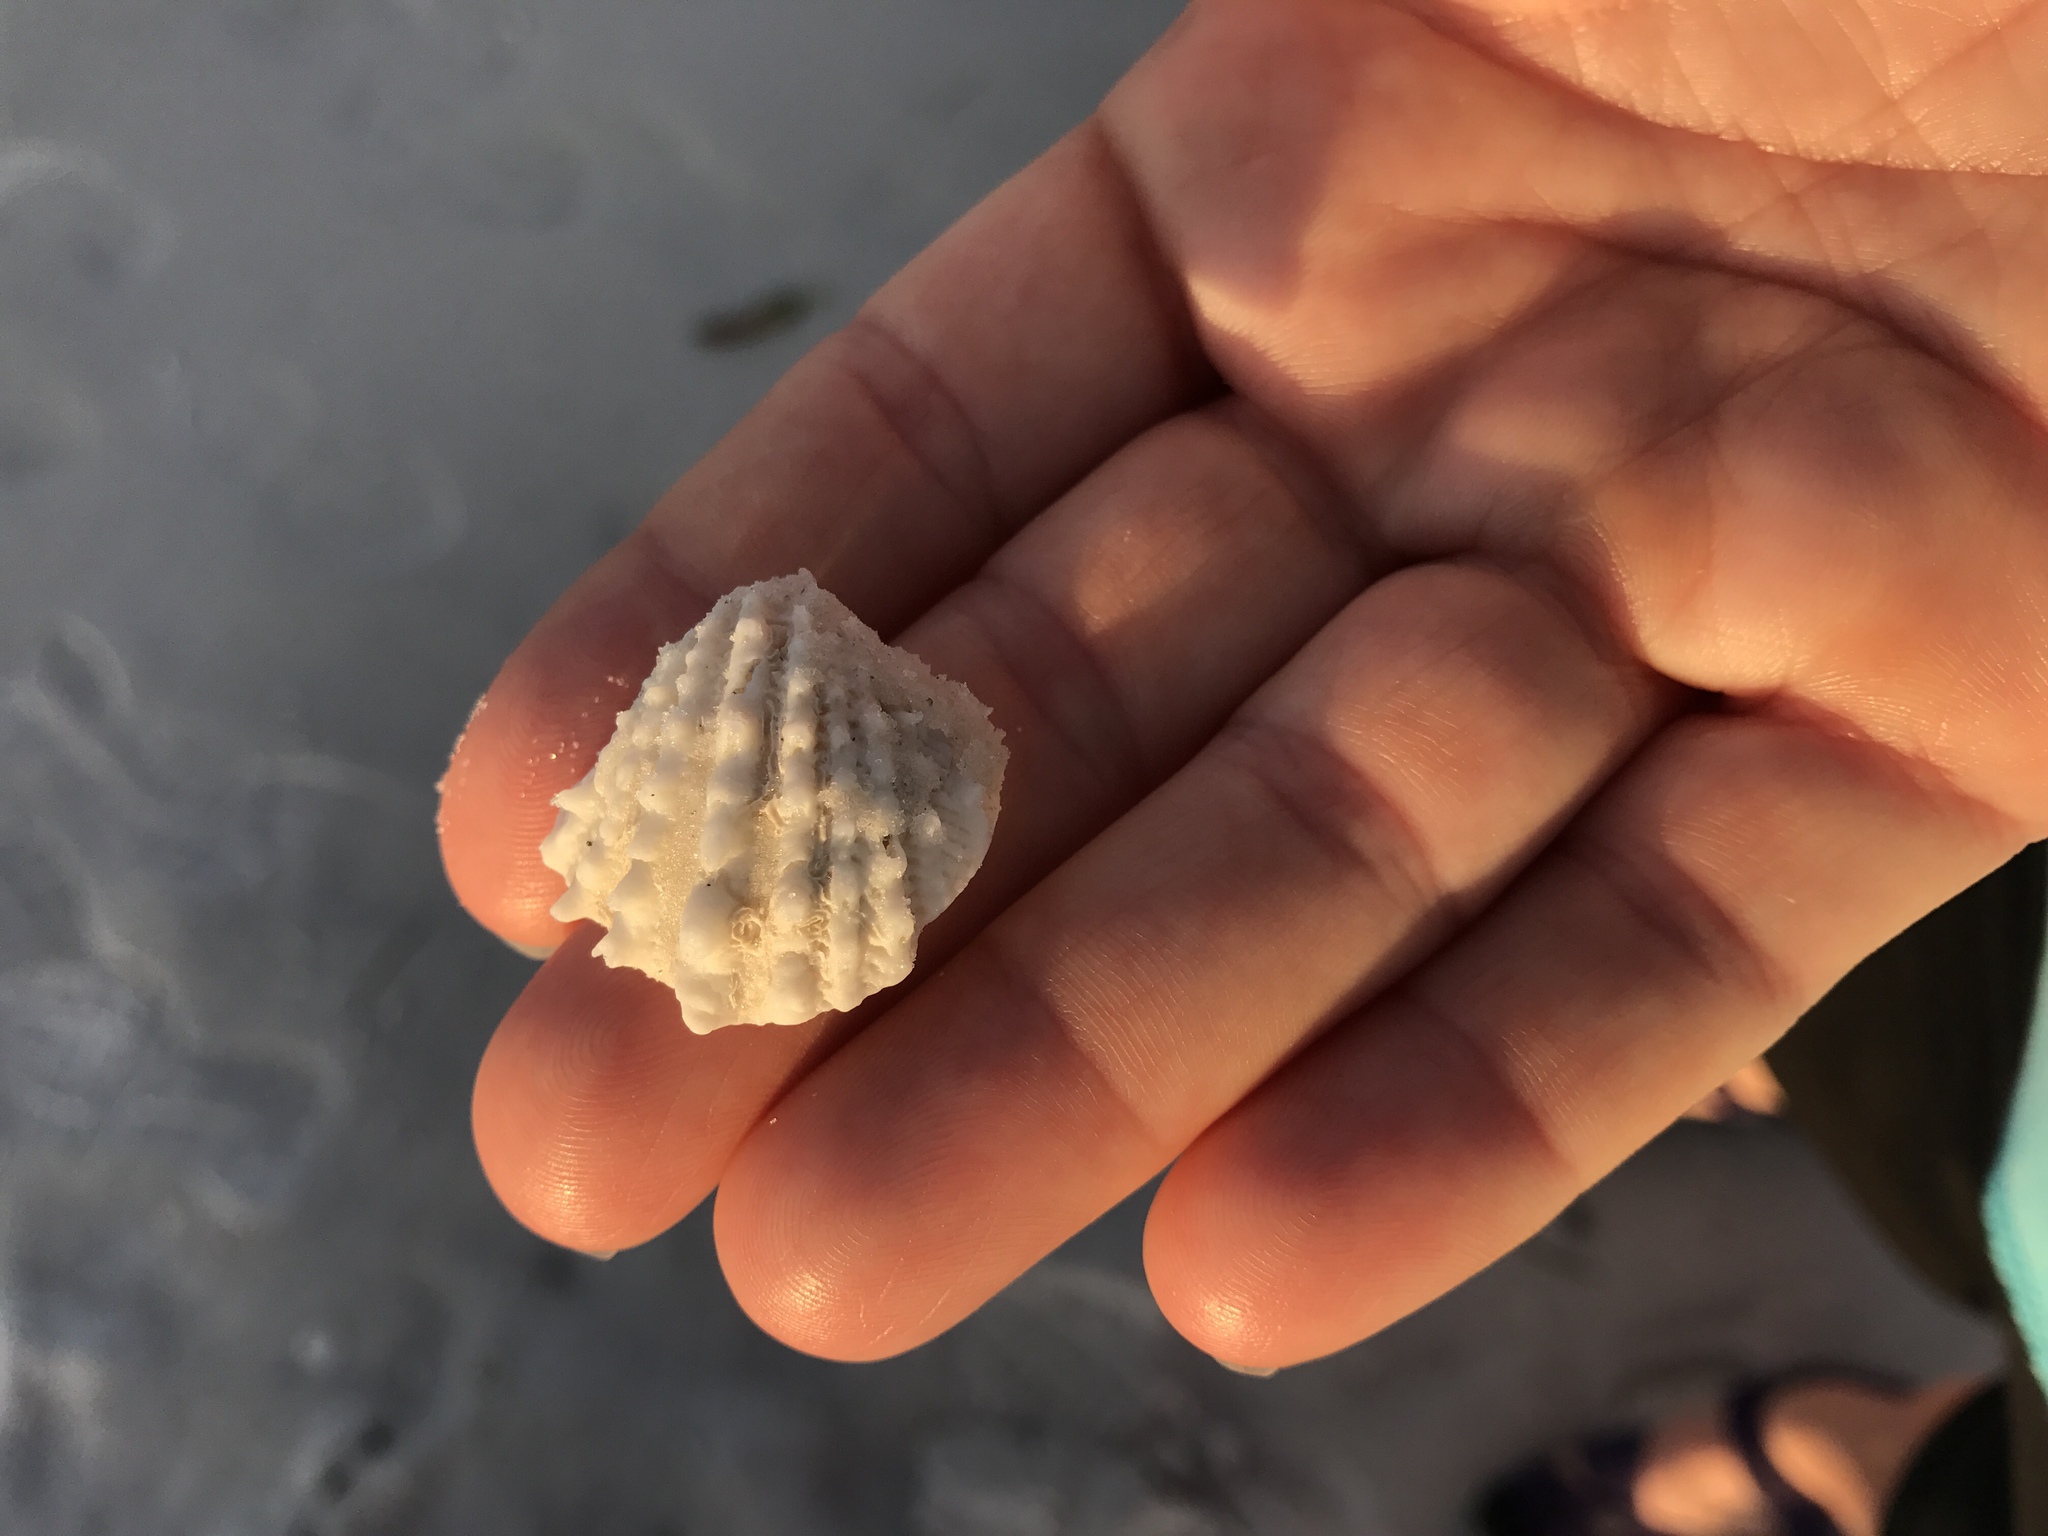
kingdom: Animalia
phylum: Mollusca
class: Bivalvia
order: Venerida
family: Chamidae
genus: Arcinella
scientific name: Arcinella cornuta
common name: Florida spiny jewel box
